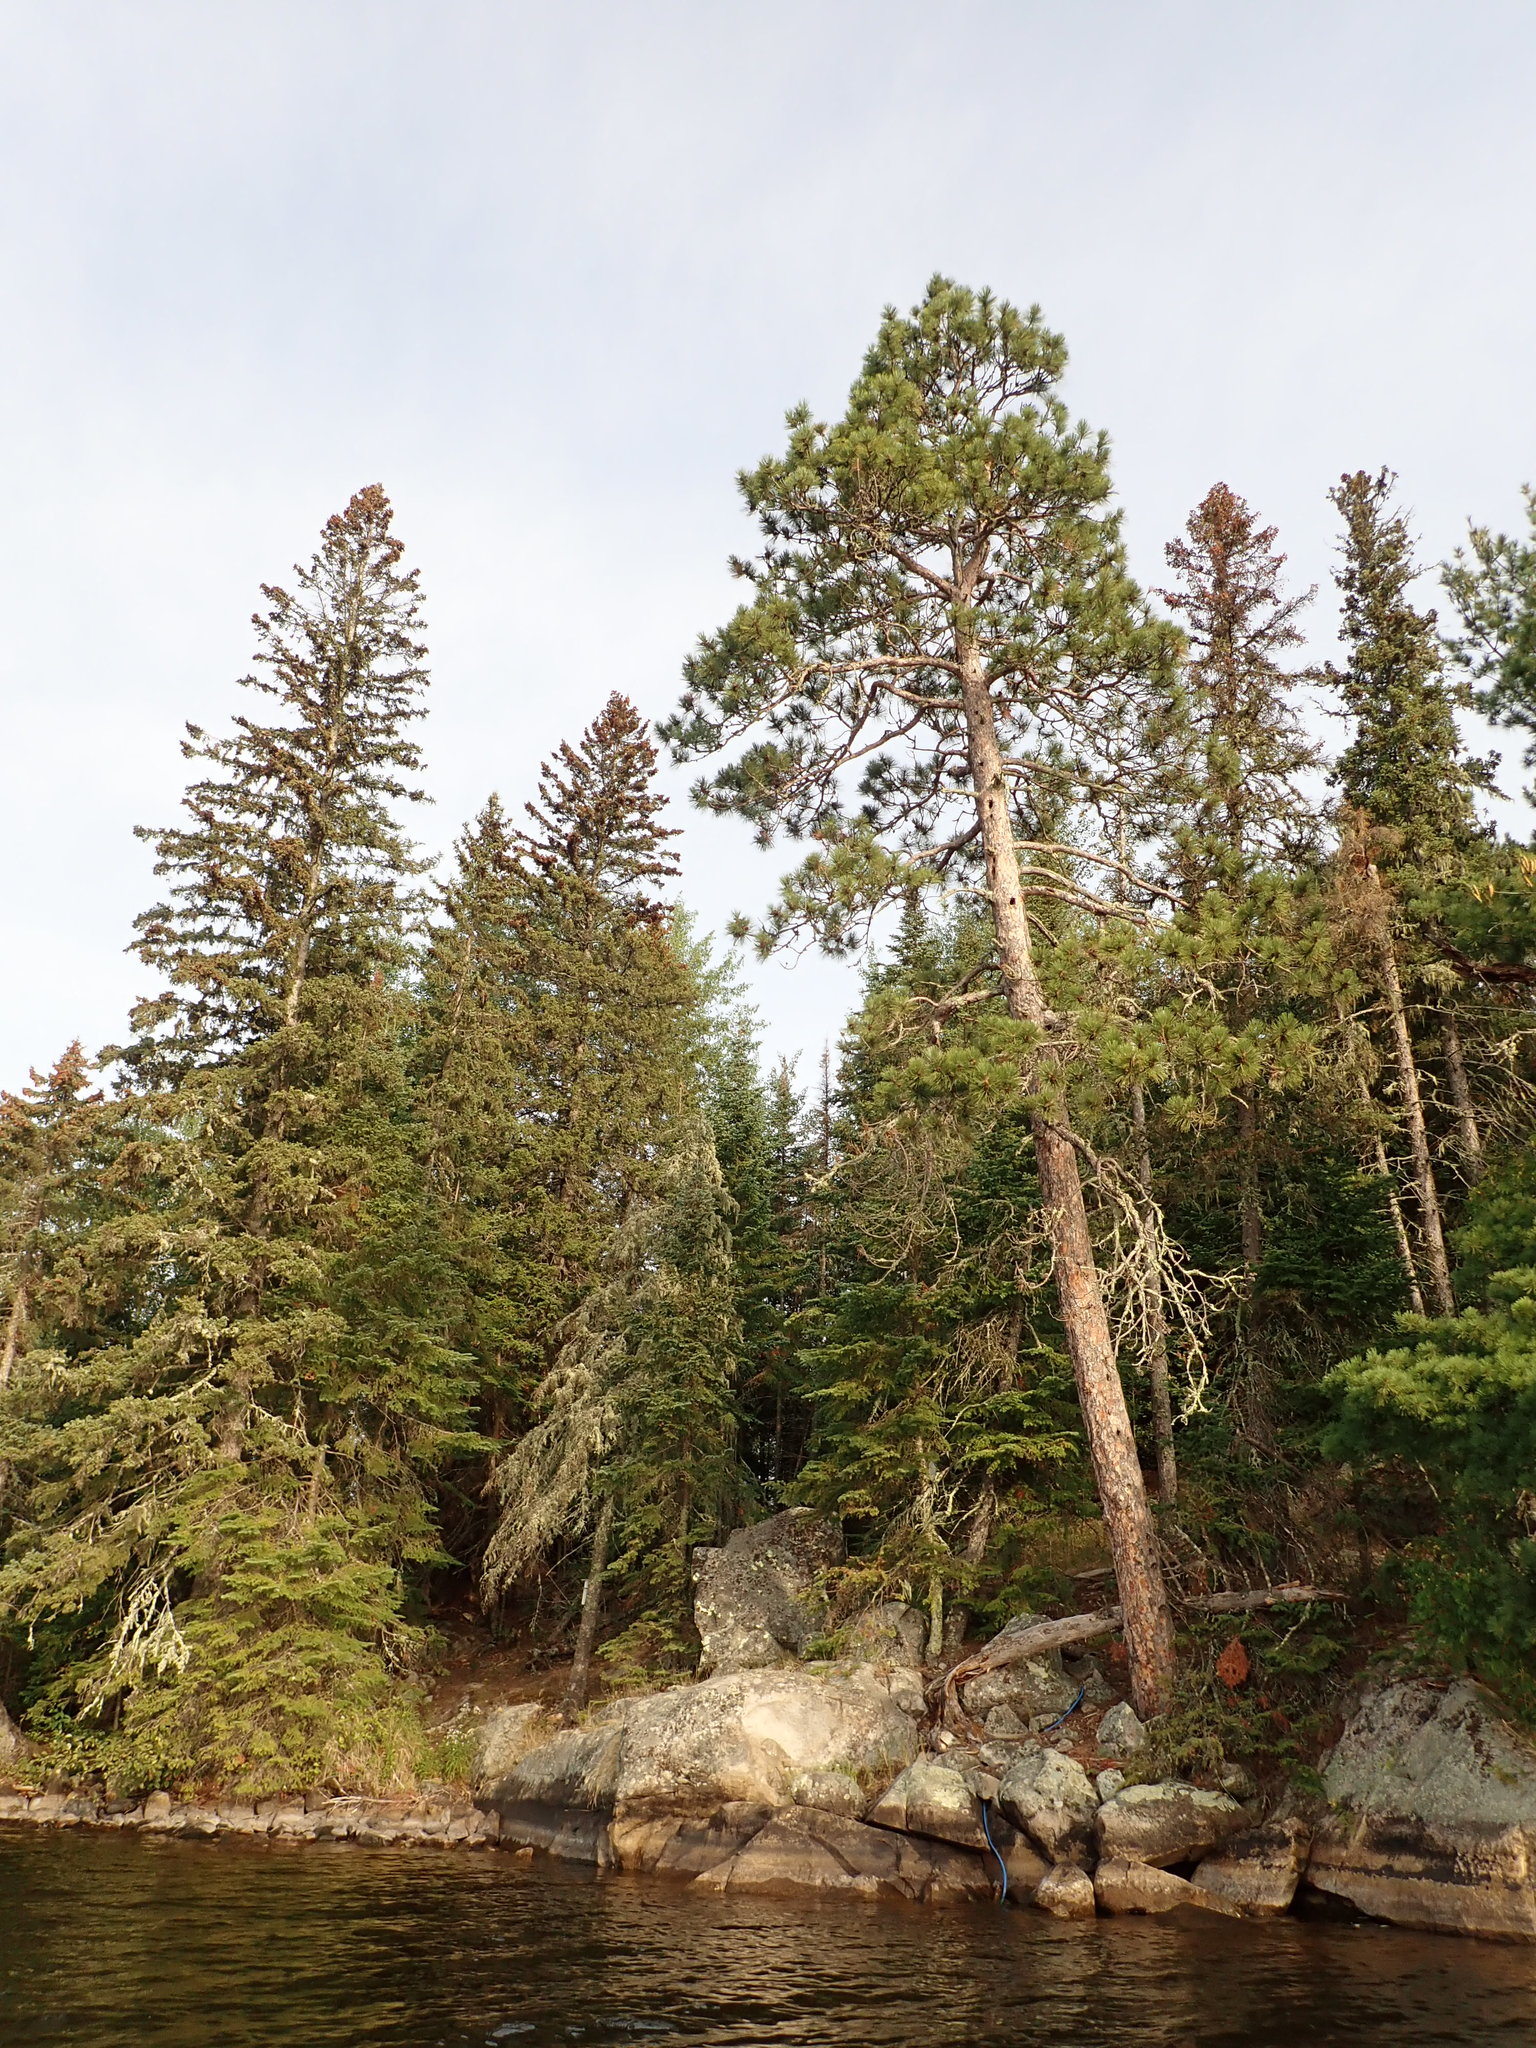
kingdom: Plantae
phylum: Tracheophyta
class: Pinopsida
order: Pinales
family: Pinaceae
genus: Pinus
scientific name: Pinus resinosa
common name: Norway pine
